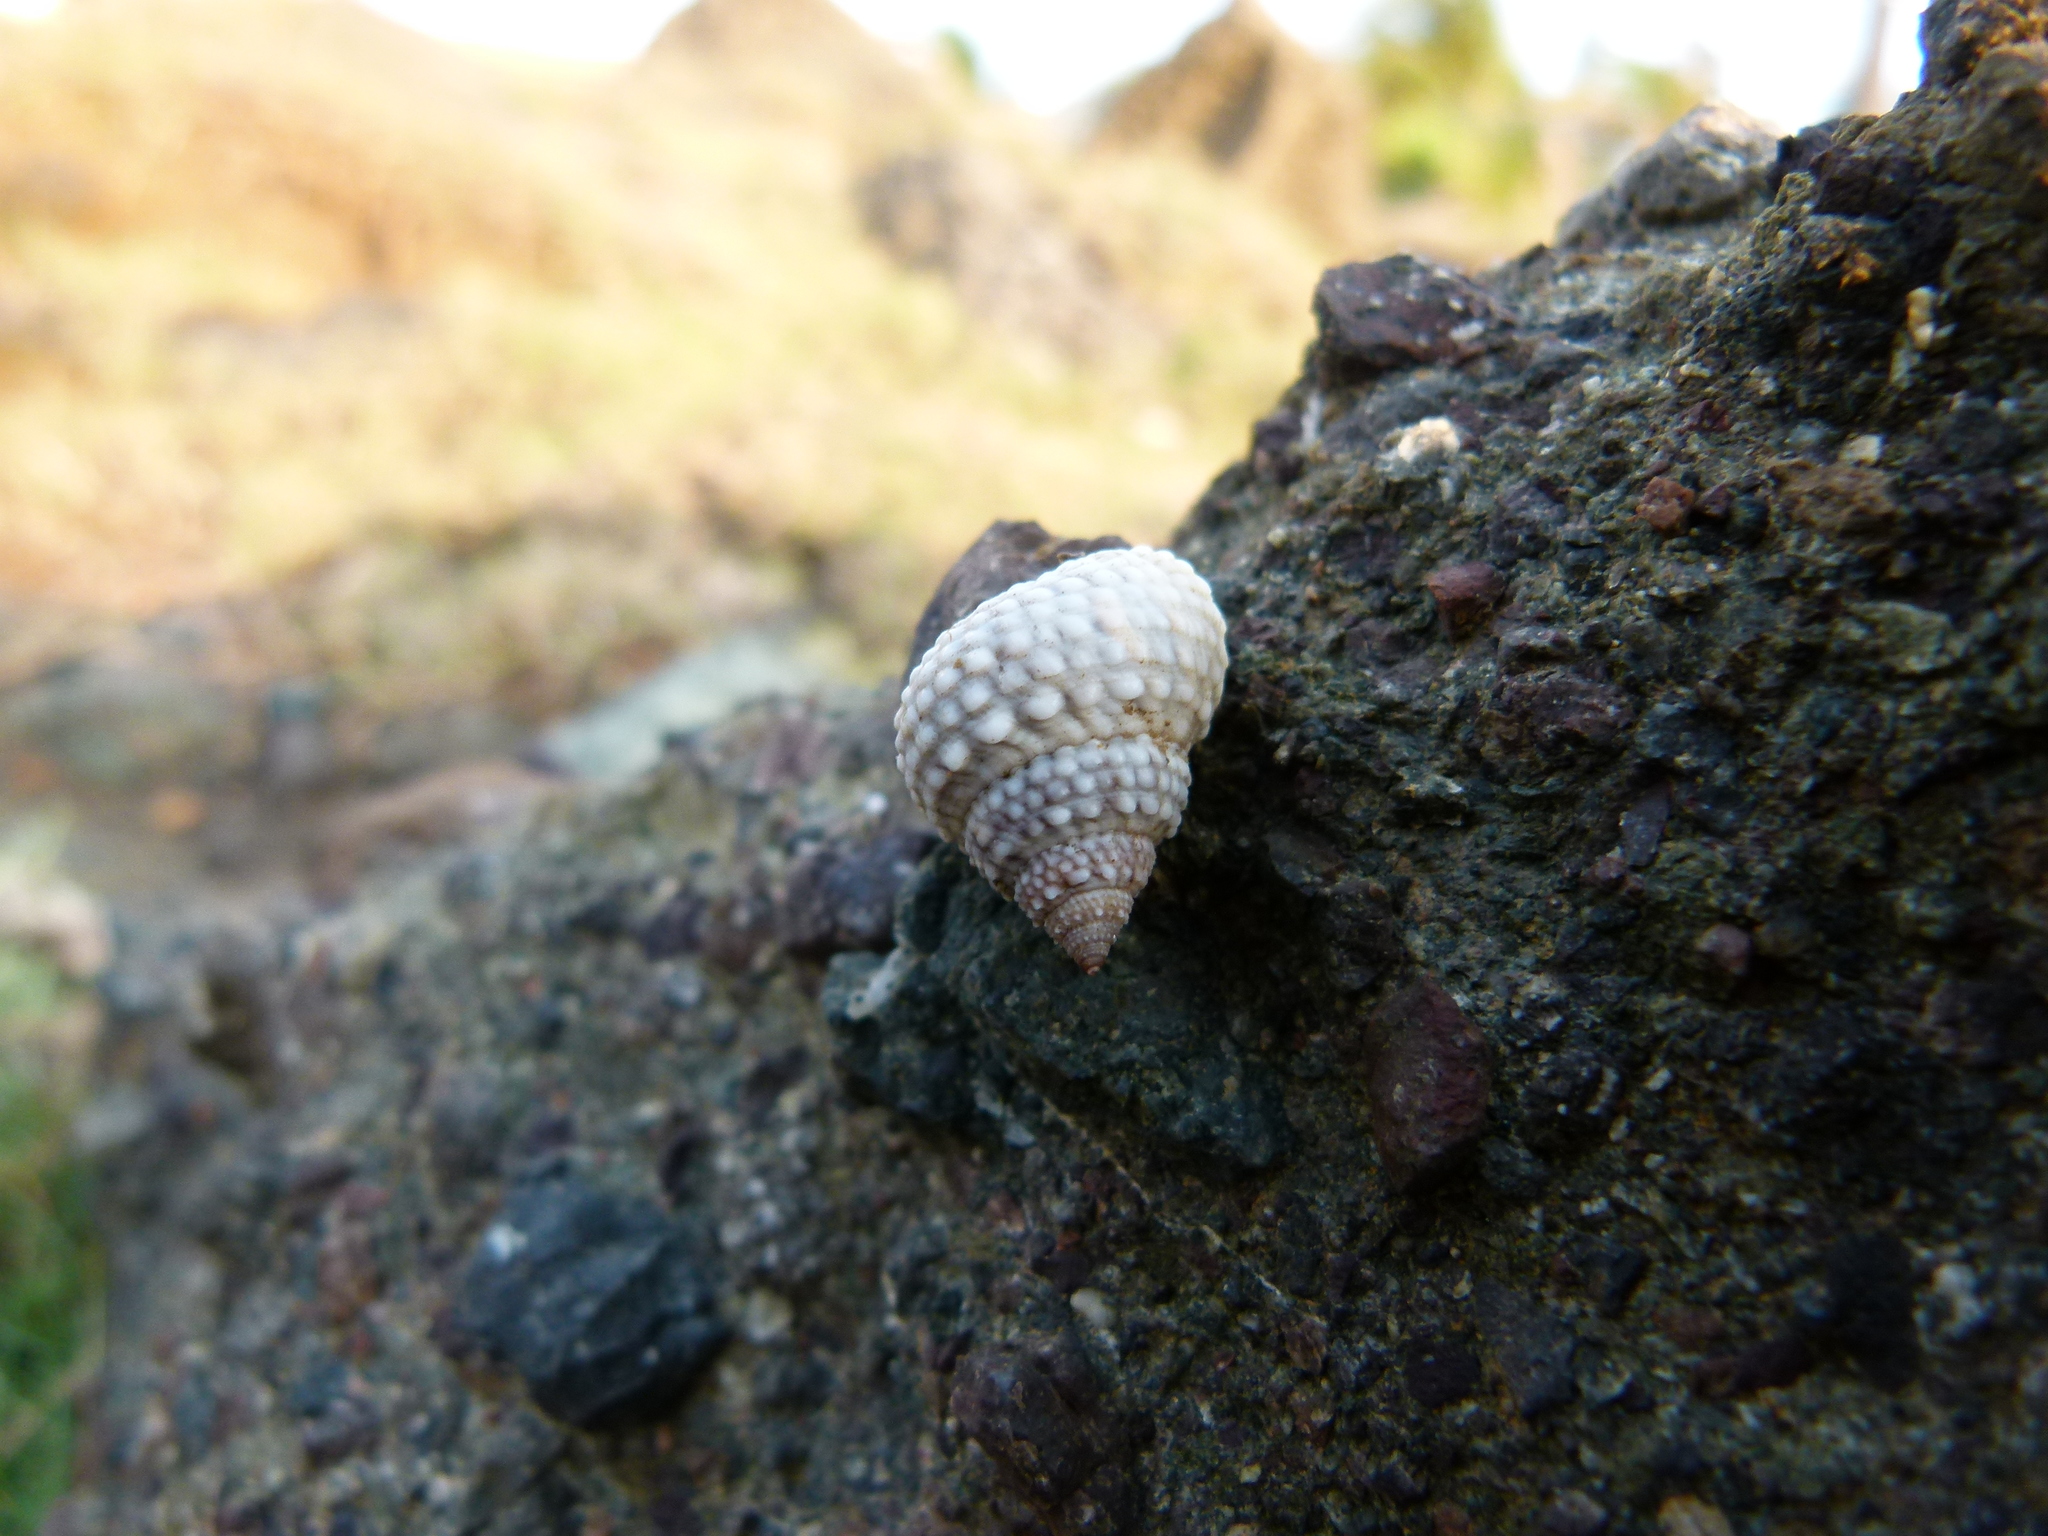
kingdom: Animalia
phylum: Mollusca
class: Gastropoda
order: Littorinimorpha
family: Littorinidae
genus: Cenchritis
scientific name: Cenchritis muricatus
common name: Beaded periwinkle
